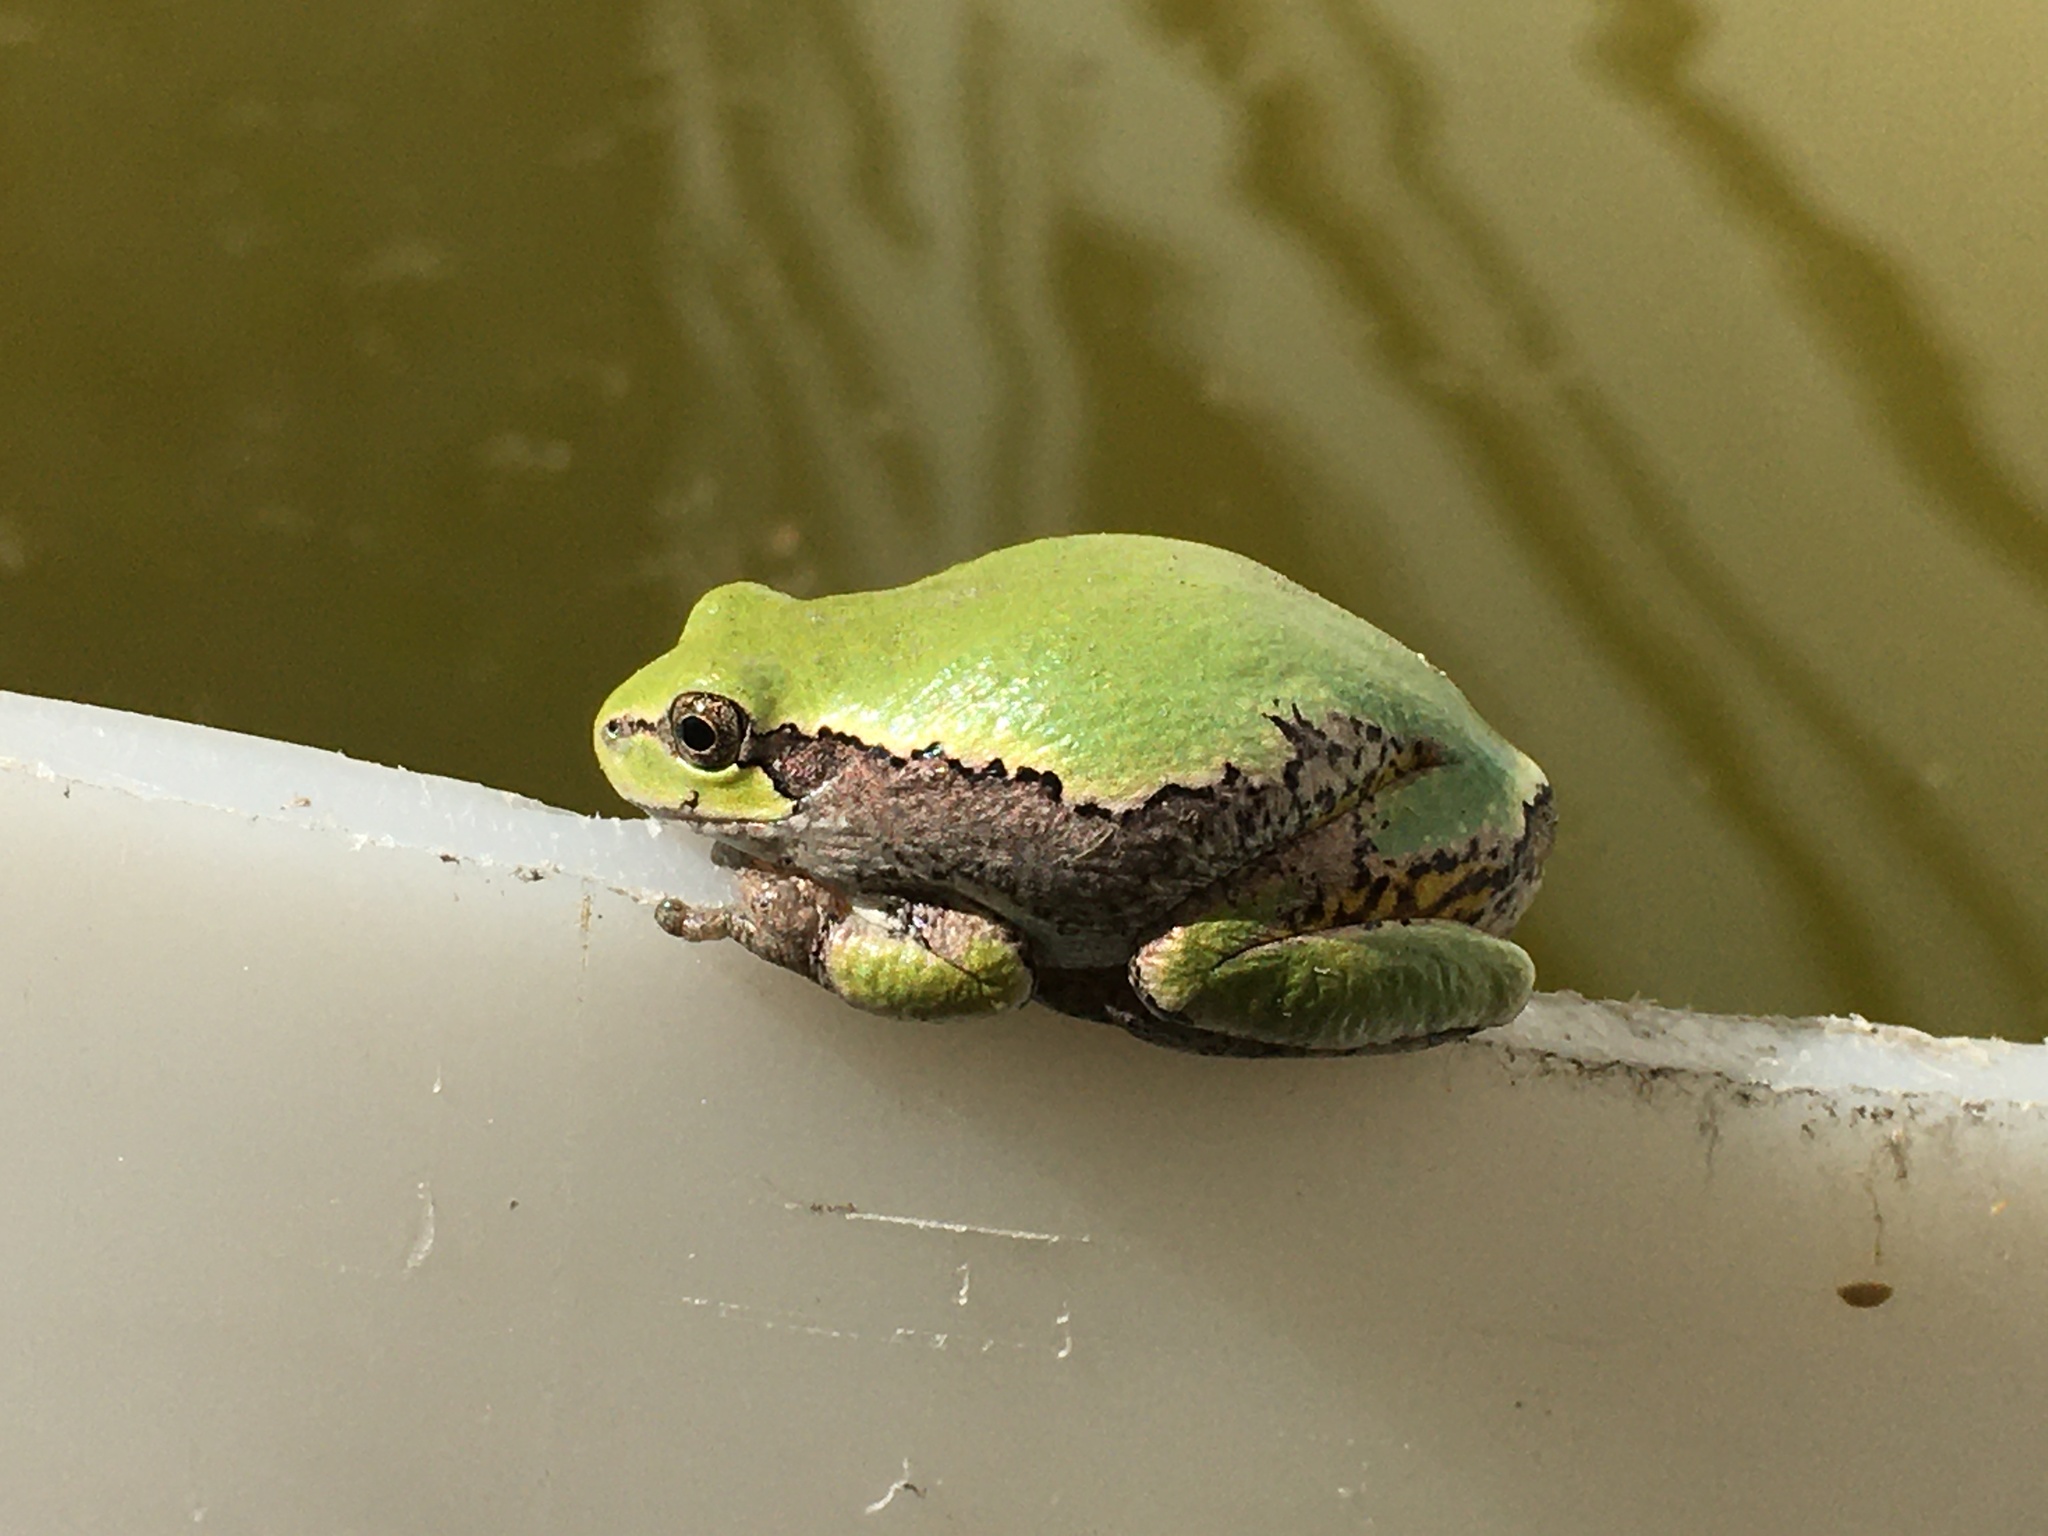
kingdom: Animalia
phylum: Chordata
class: Amphibia
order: Anura
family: Hylidae
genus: Hyla
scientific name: Hyla
